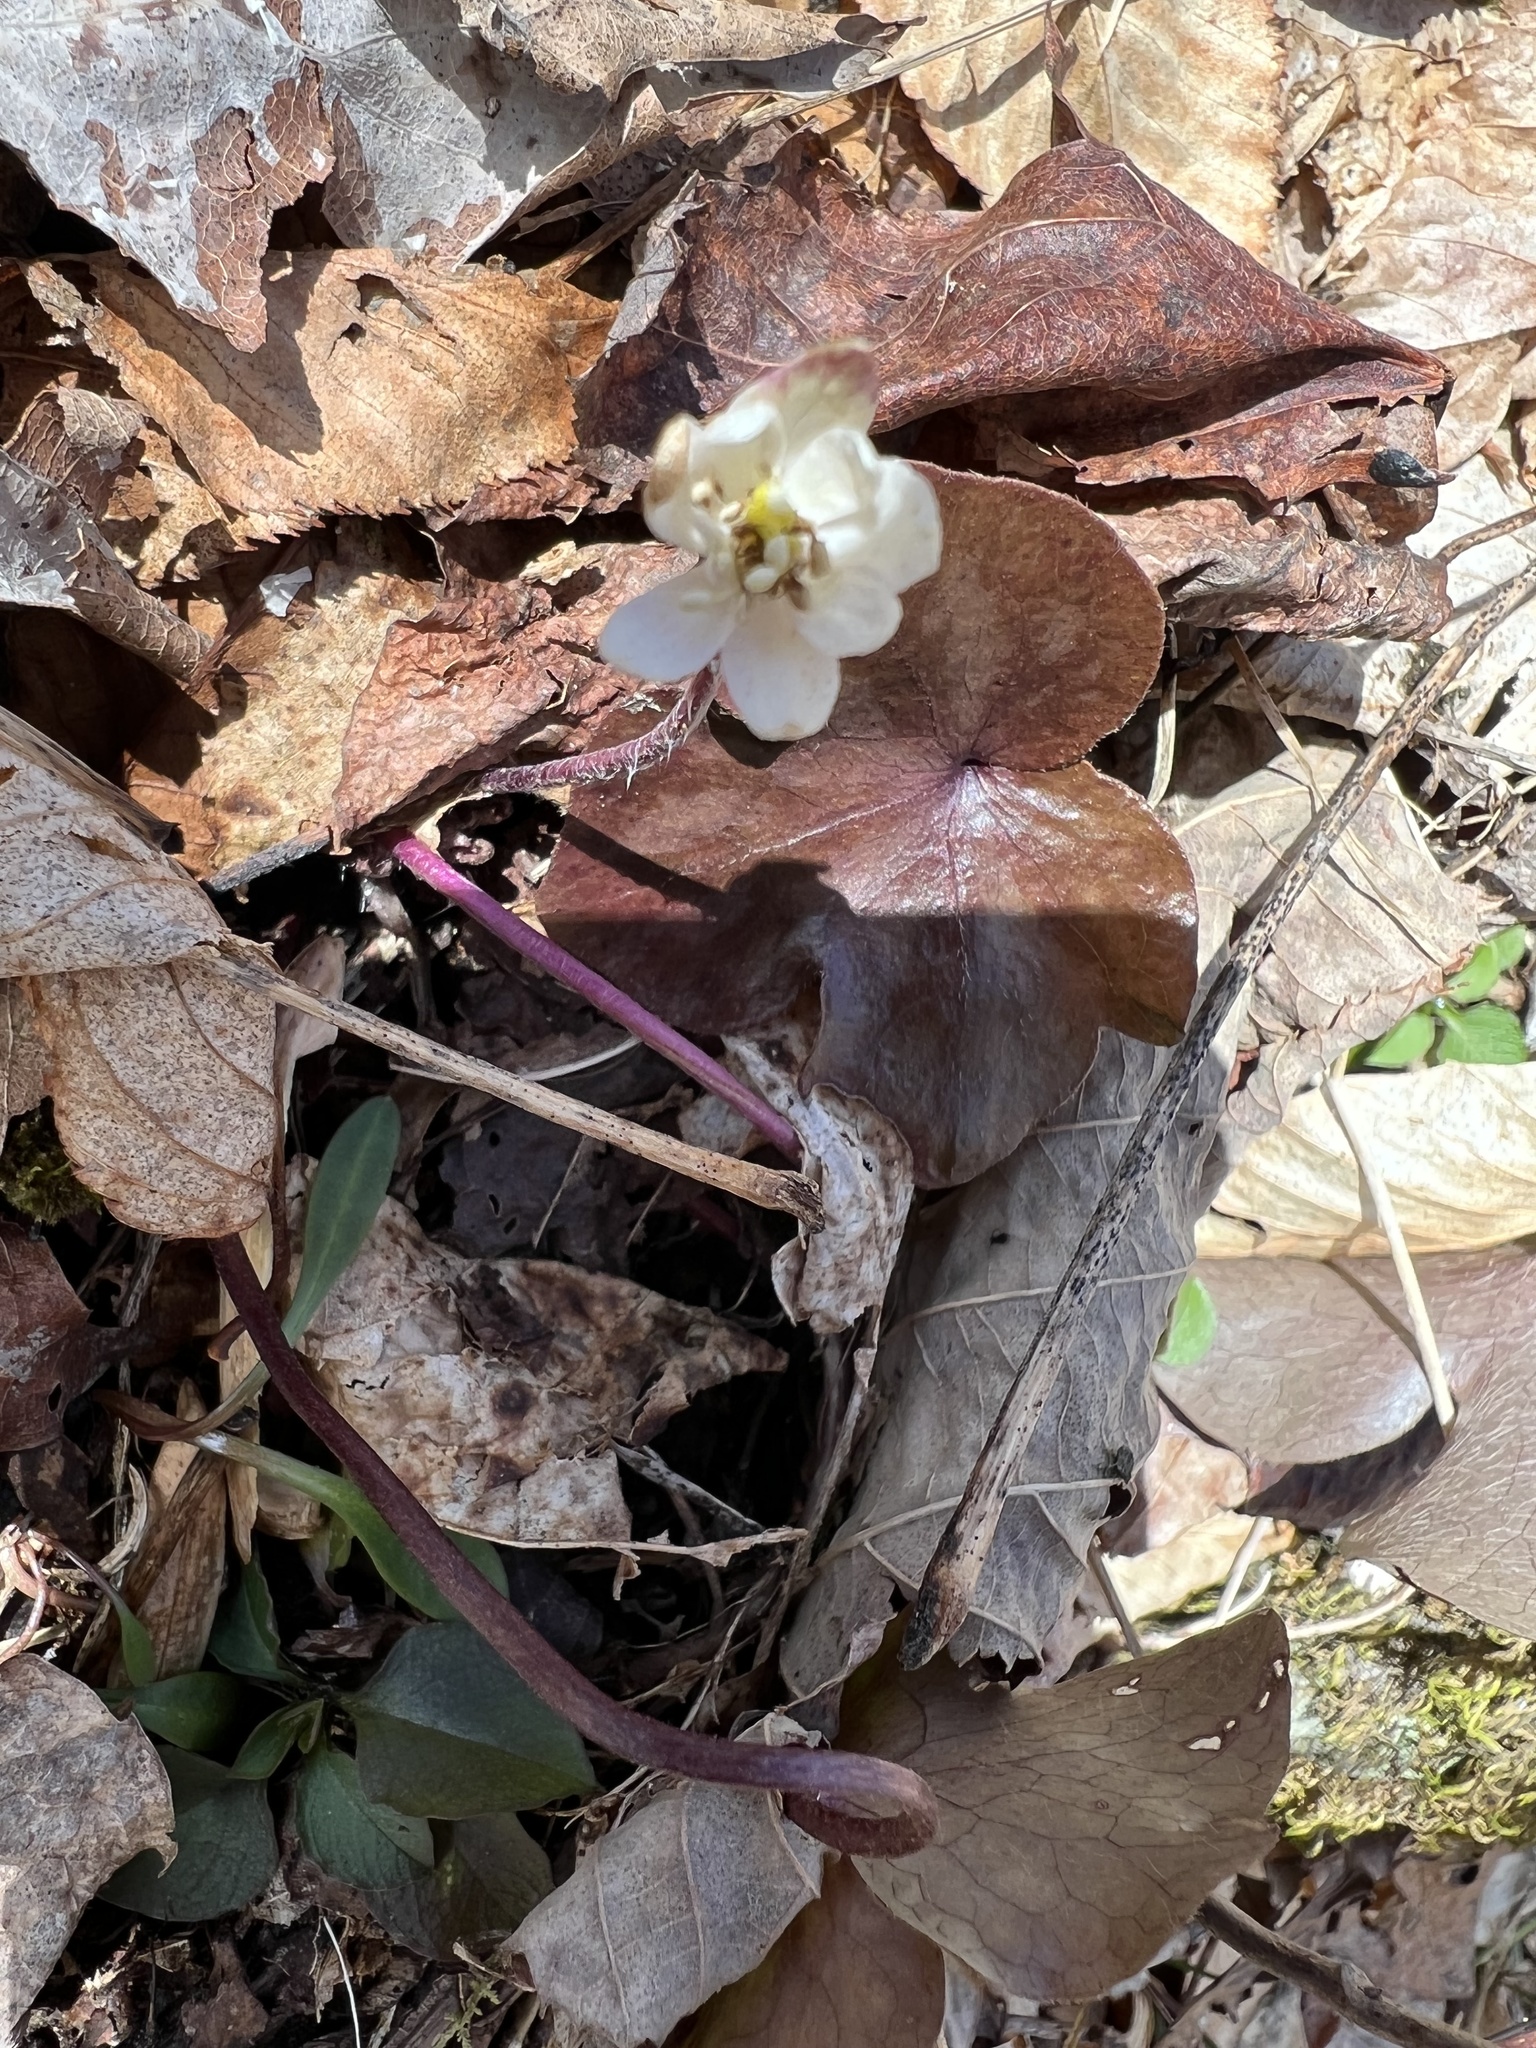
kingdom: Plantae
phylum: Tracheophyta
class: Magnoliopsida
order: Ranunculales
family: Ranunculaceae
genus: Hepatica
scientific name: Hepatica americana
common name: American hepatica
